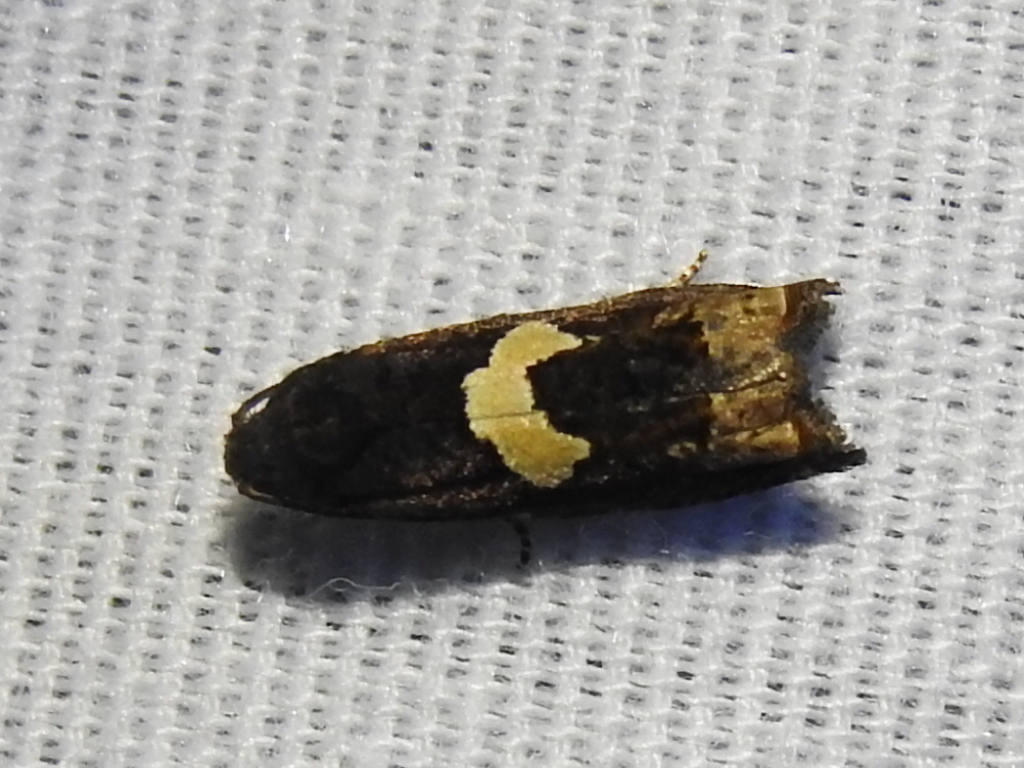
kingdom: Animalia
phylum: Arthropoda
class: Insecta
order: Lepidoptera
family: Tortricidae
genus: Epiblema
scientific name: Epiblema otiosana
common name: Bidens borer moth
